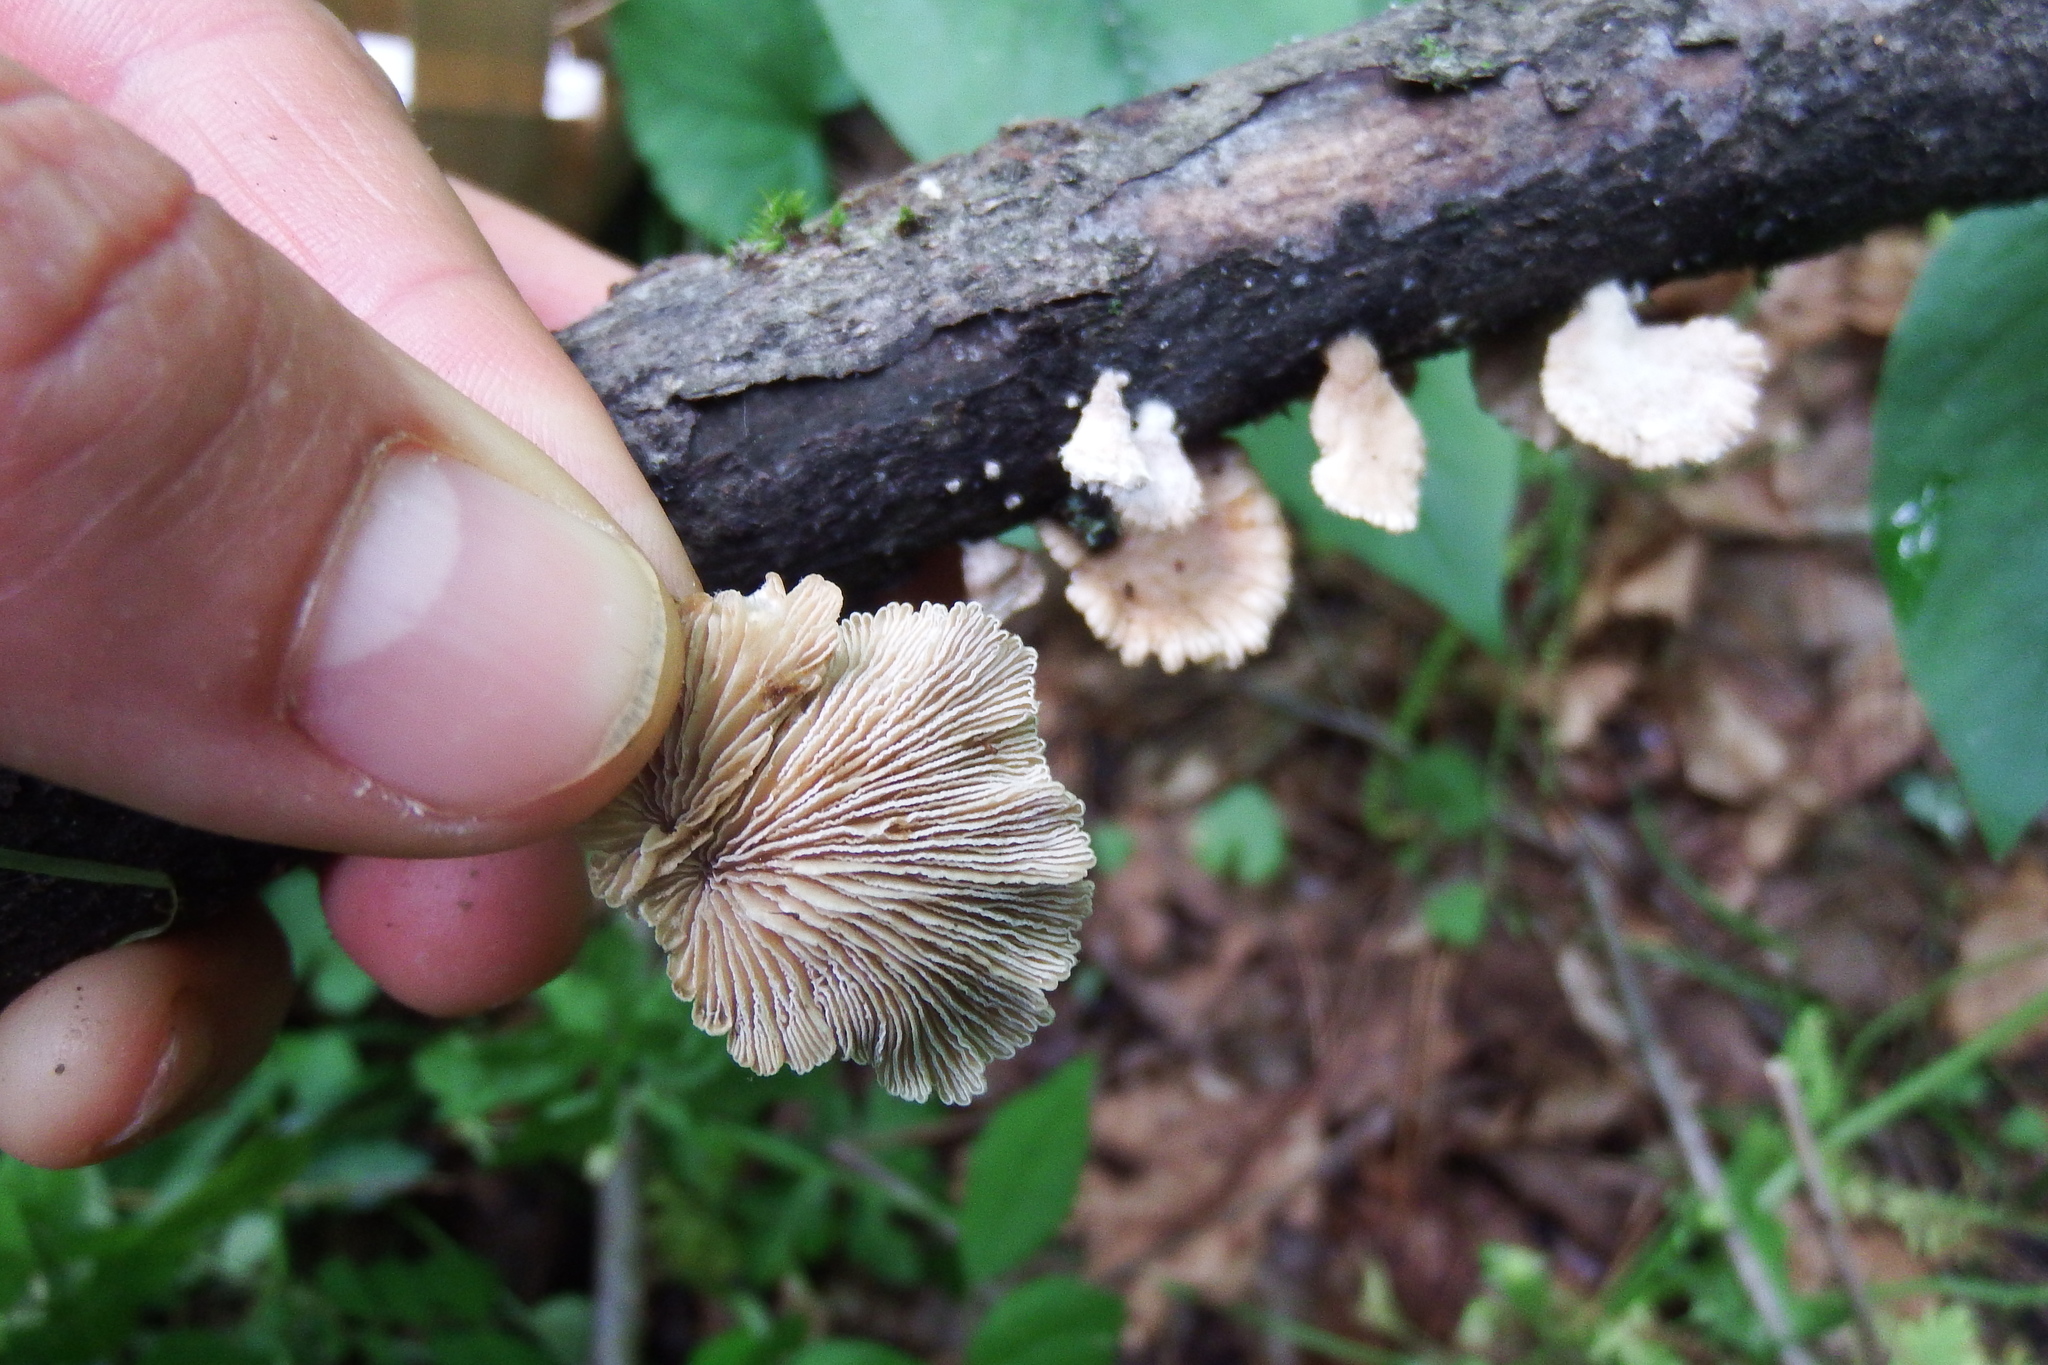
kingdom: Fungi
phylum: Basidiomycota
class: Agaricomycetes
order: Agaricales
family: Schizophyllaceae
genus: Schizophyllum
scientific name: Schizophyllum commune
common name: Common porecrust
